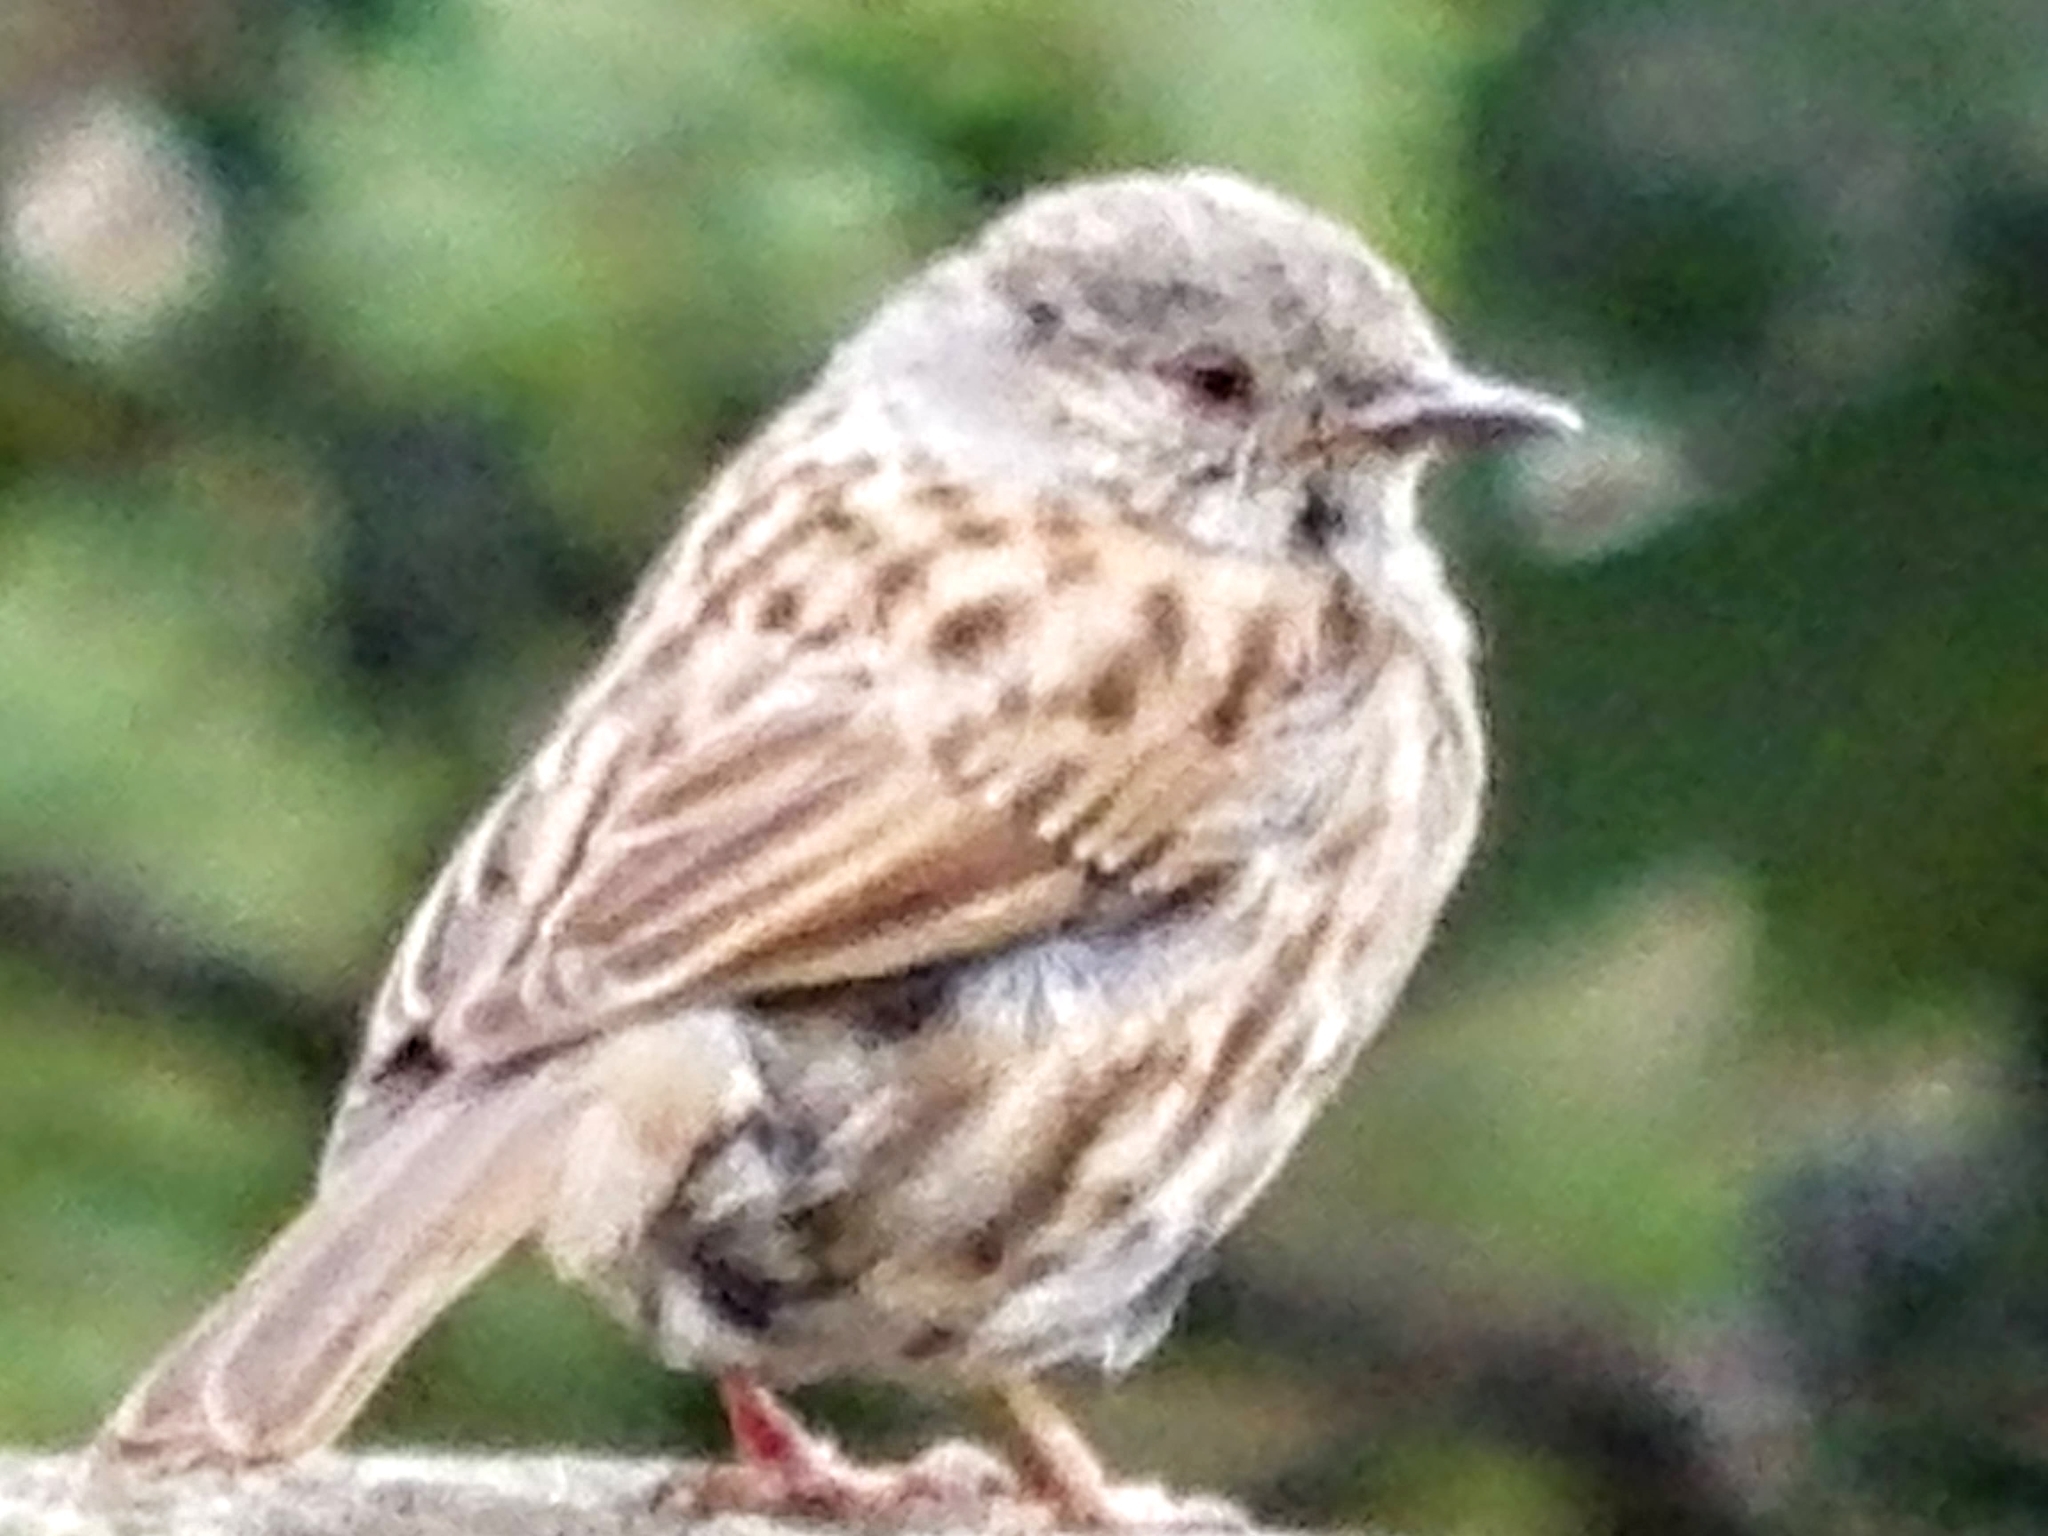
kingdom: Animalia
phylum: Chordata
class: Aves
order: Passeriformes
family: Prunellidae
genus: Prunella
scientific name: Prunella modularis
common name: Dunnock
